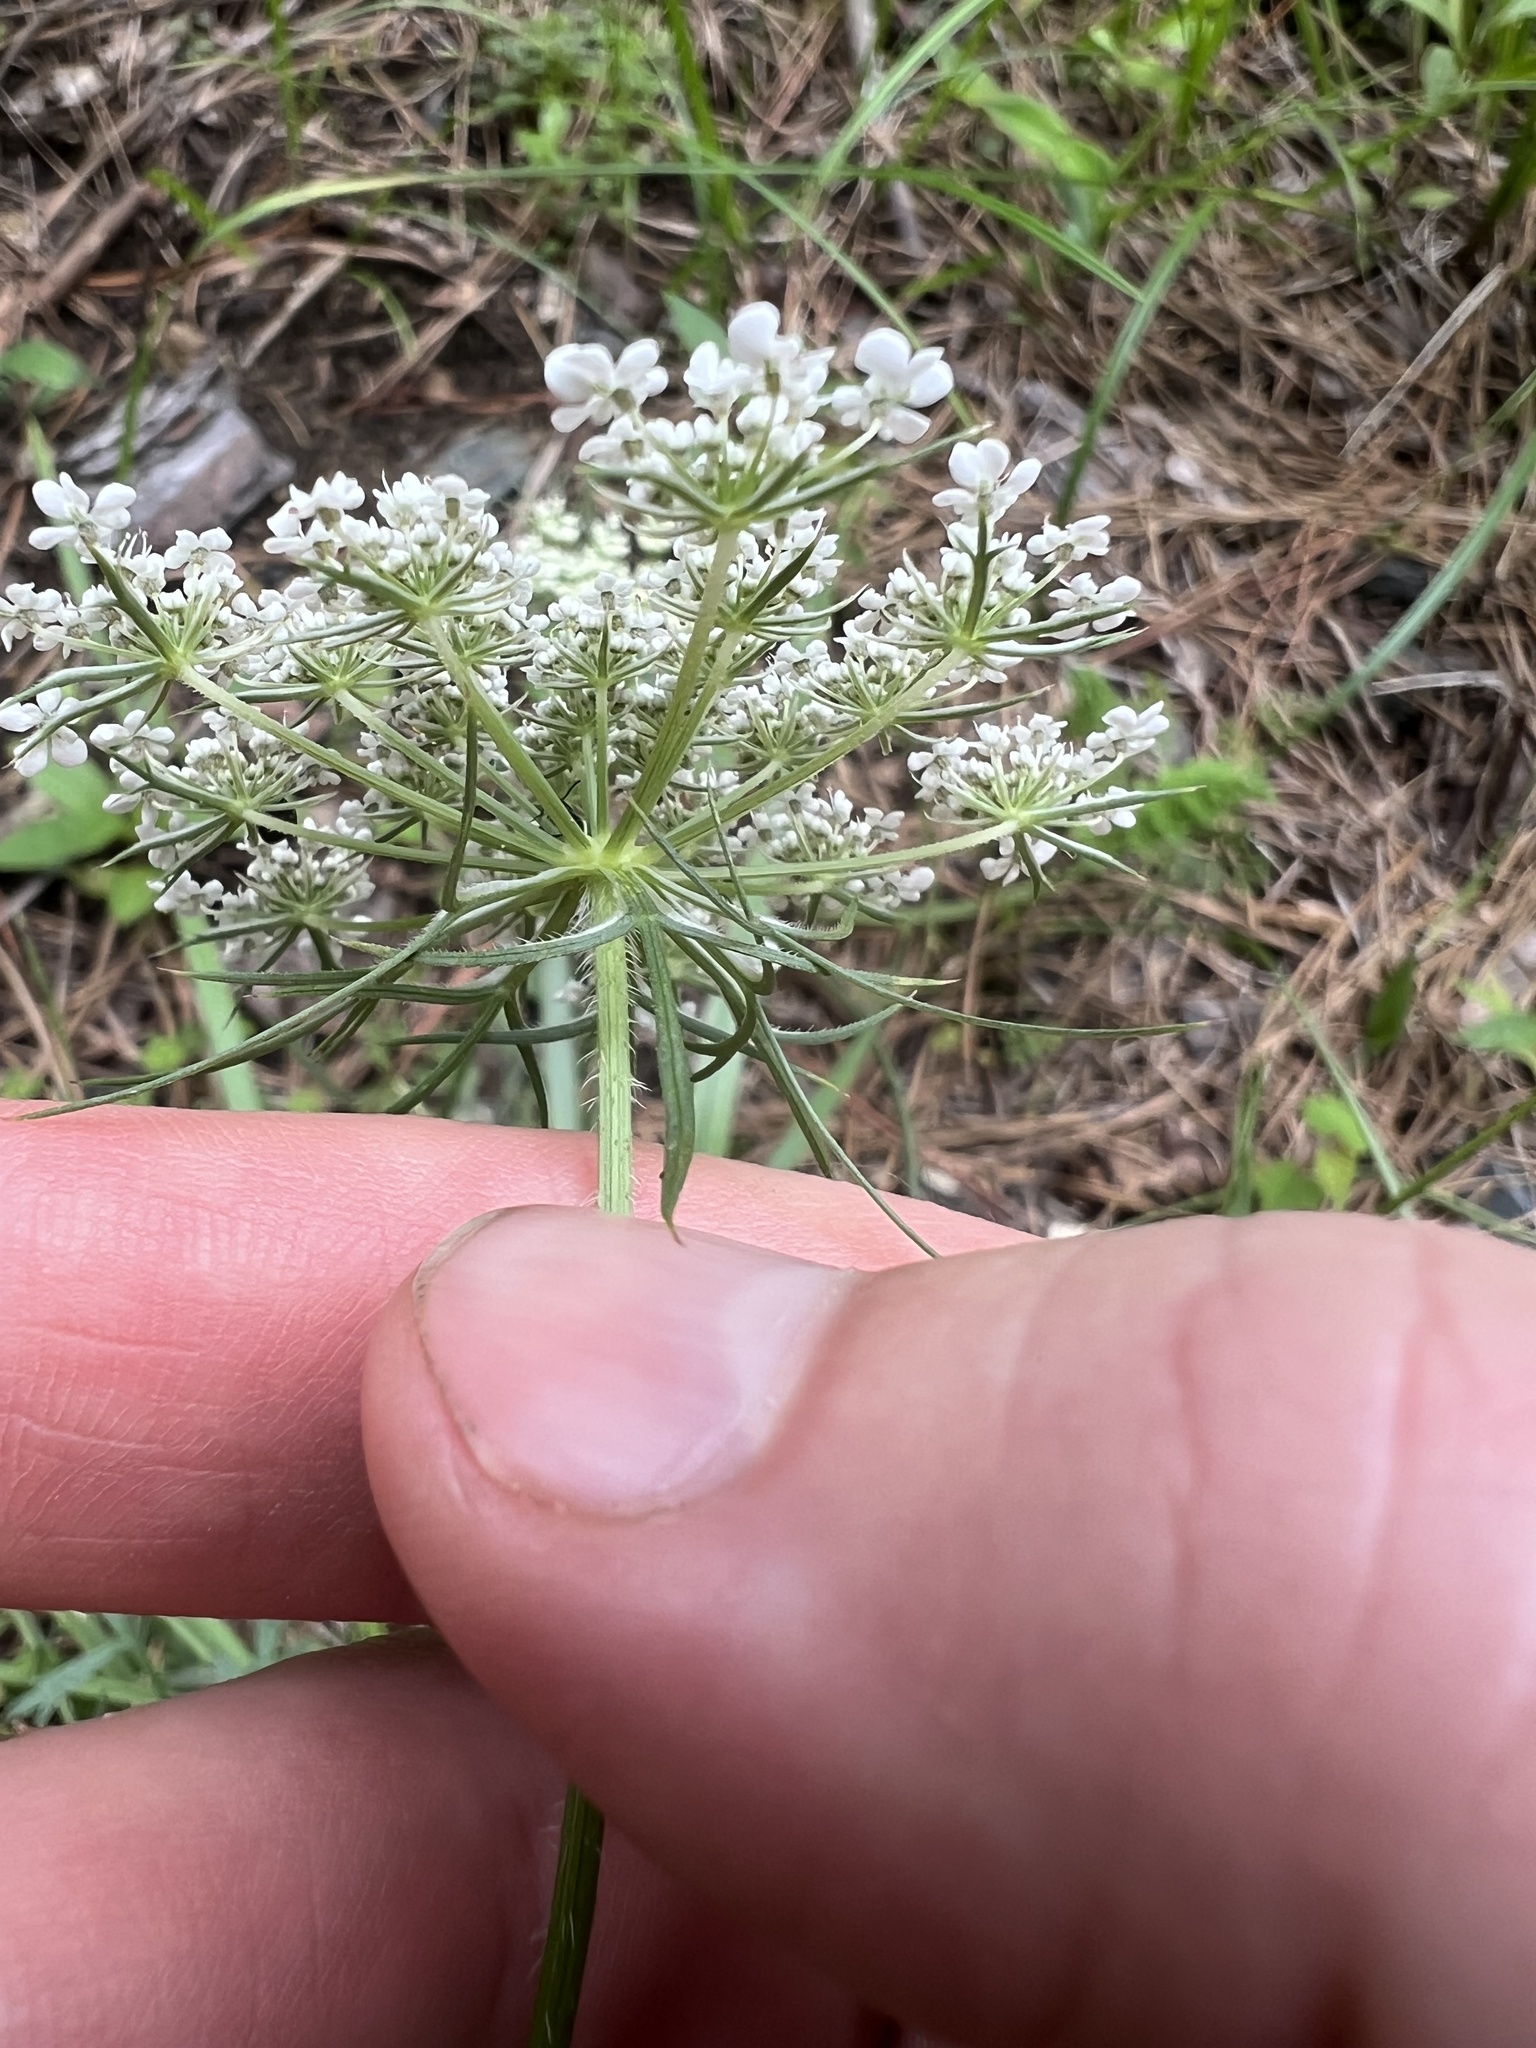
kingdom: Plantae
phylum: Tracheophyta
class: Magnoliopsida
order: Apiales
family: Apiaceae
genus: Daucus
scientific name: Daucus carota
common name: Wild carrot
